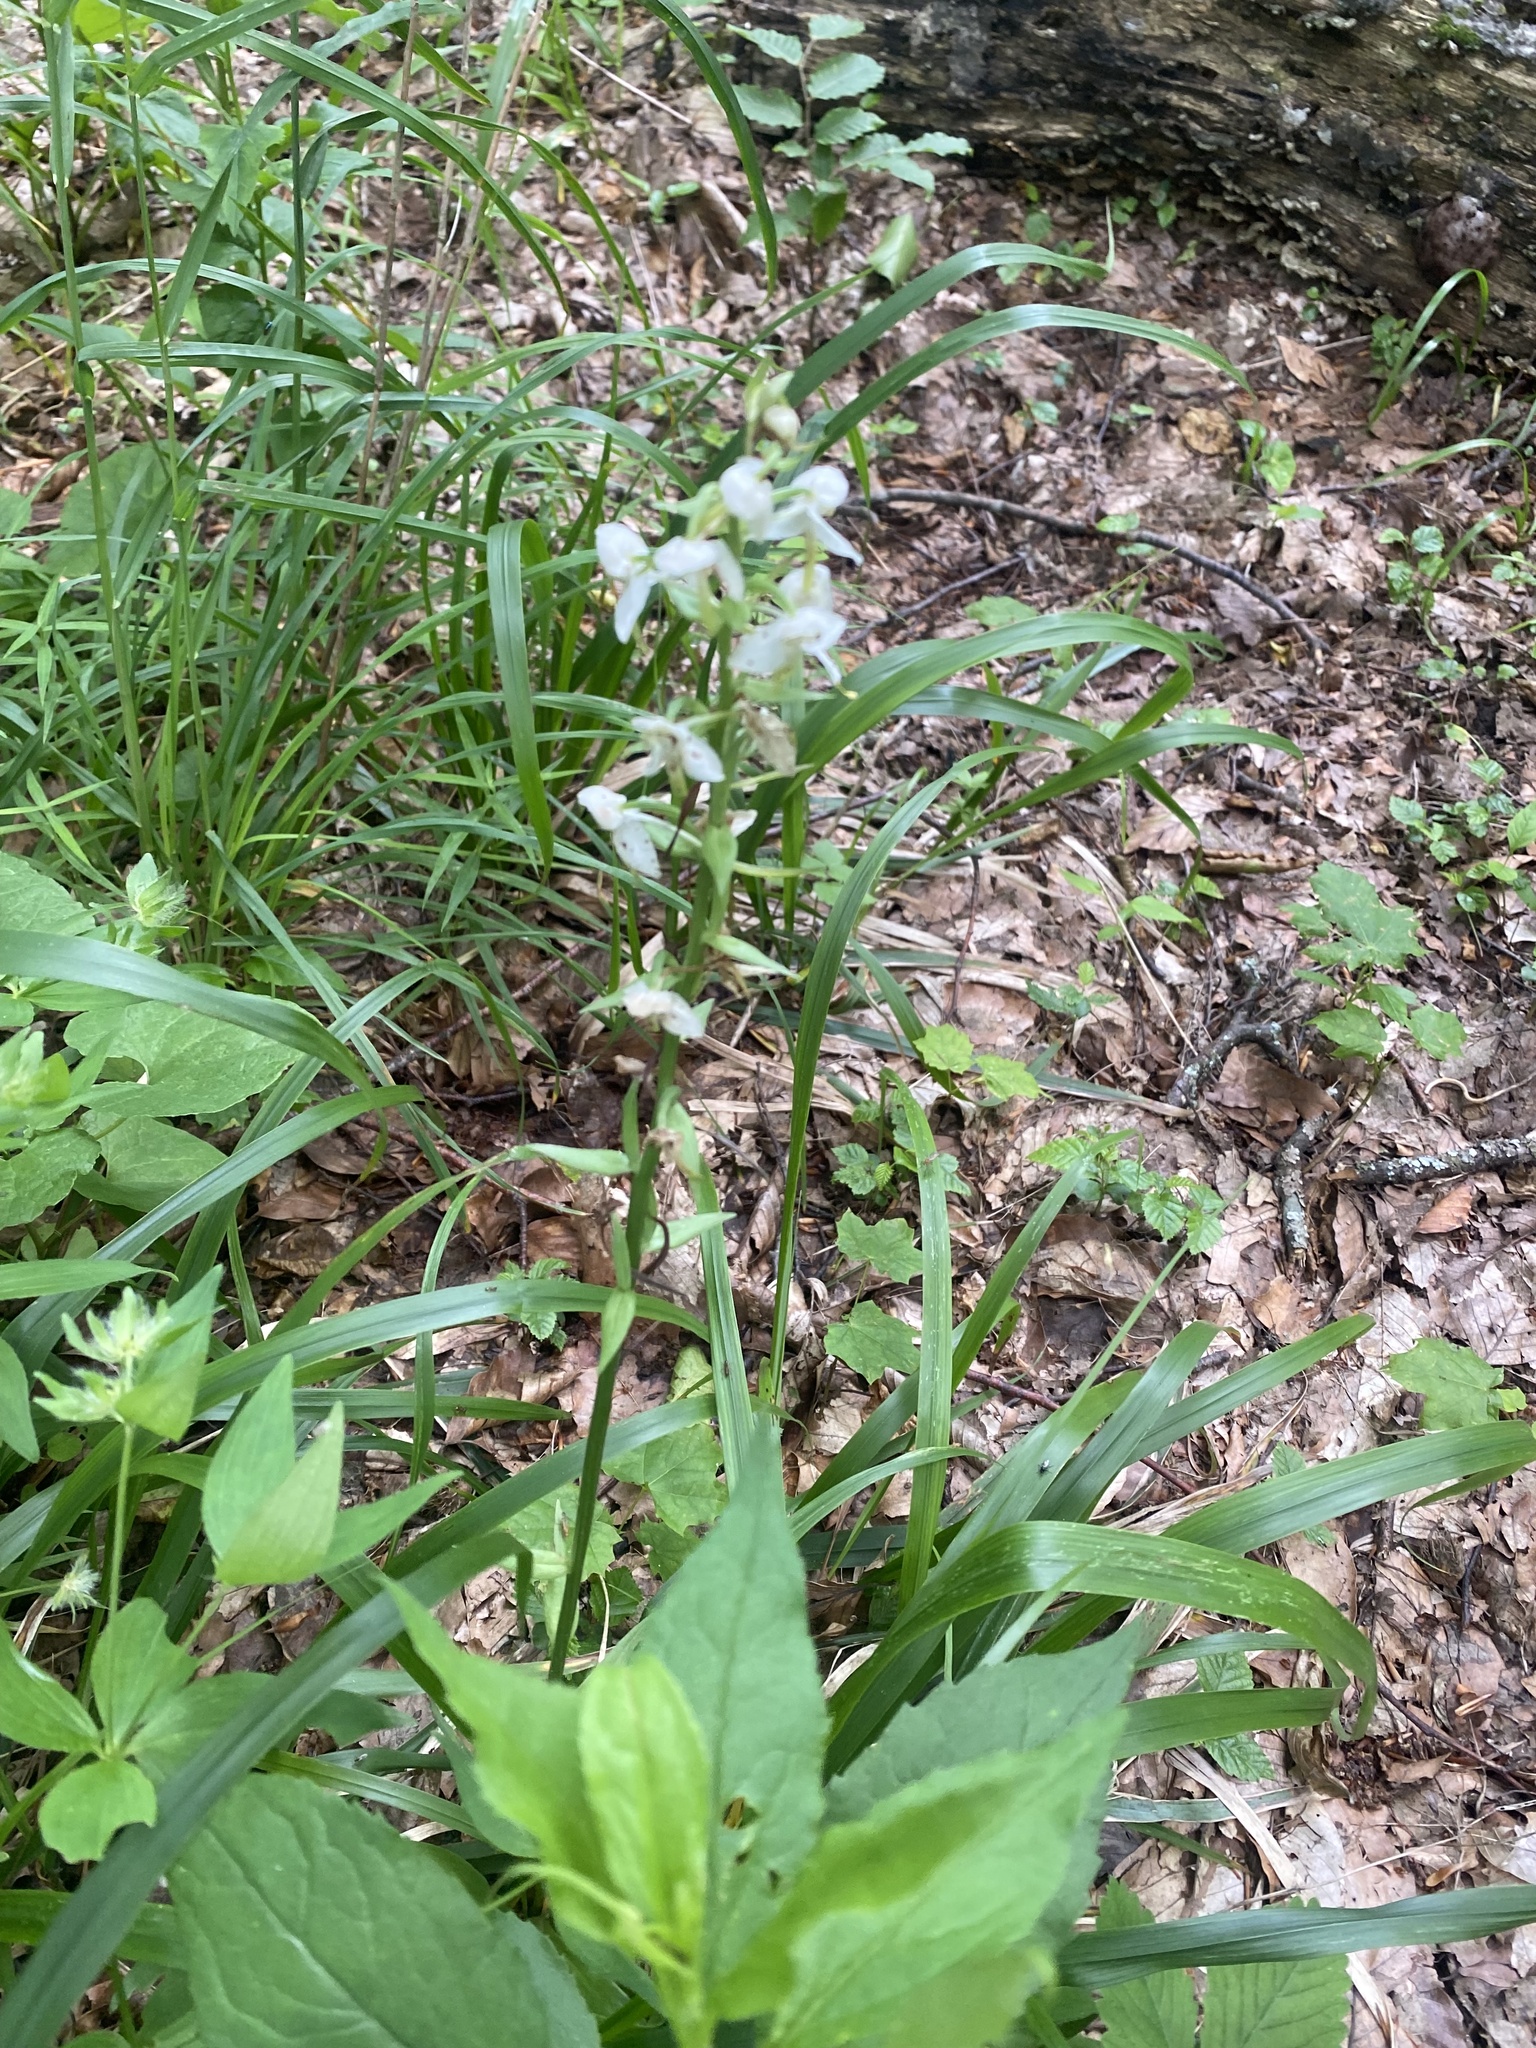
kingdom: Plantae
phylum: Tracheophyta
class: Liliopsida
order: Asparagales
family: Orchidaceae
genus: Platanthera
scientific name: Platanthera chlorantha
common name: Greater butterfly-orchid
